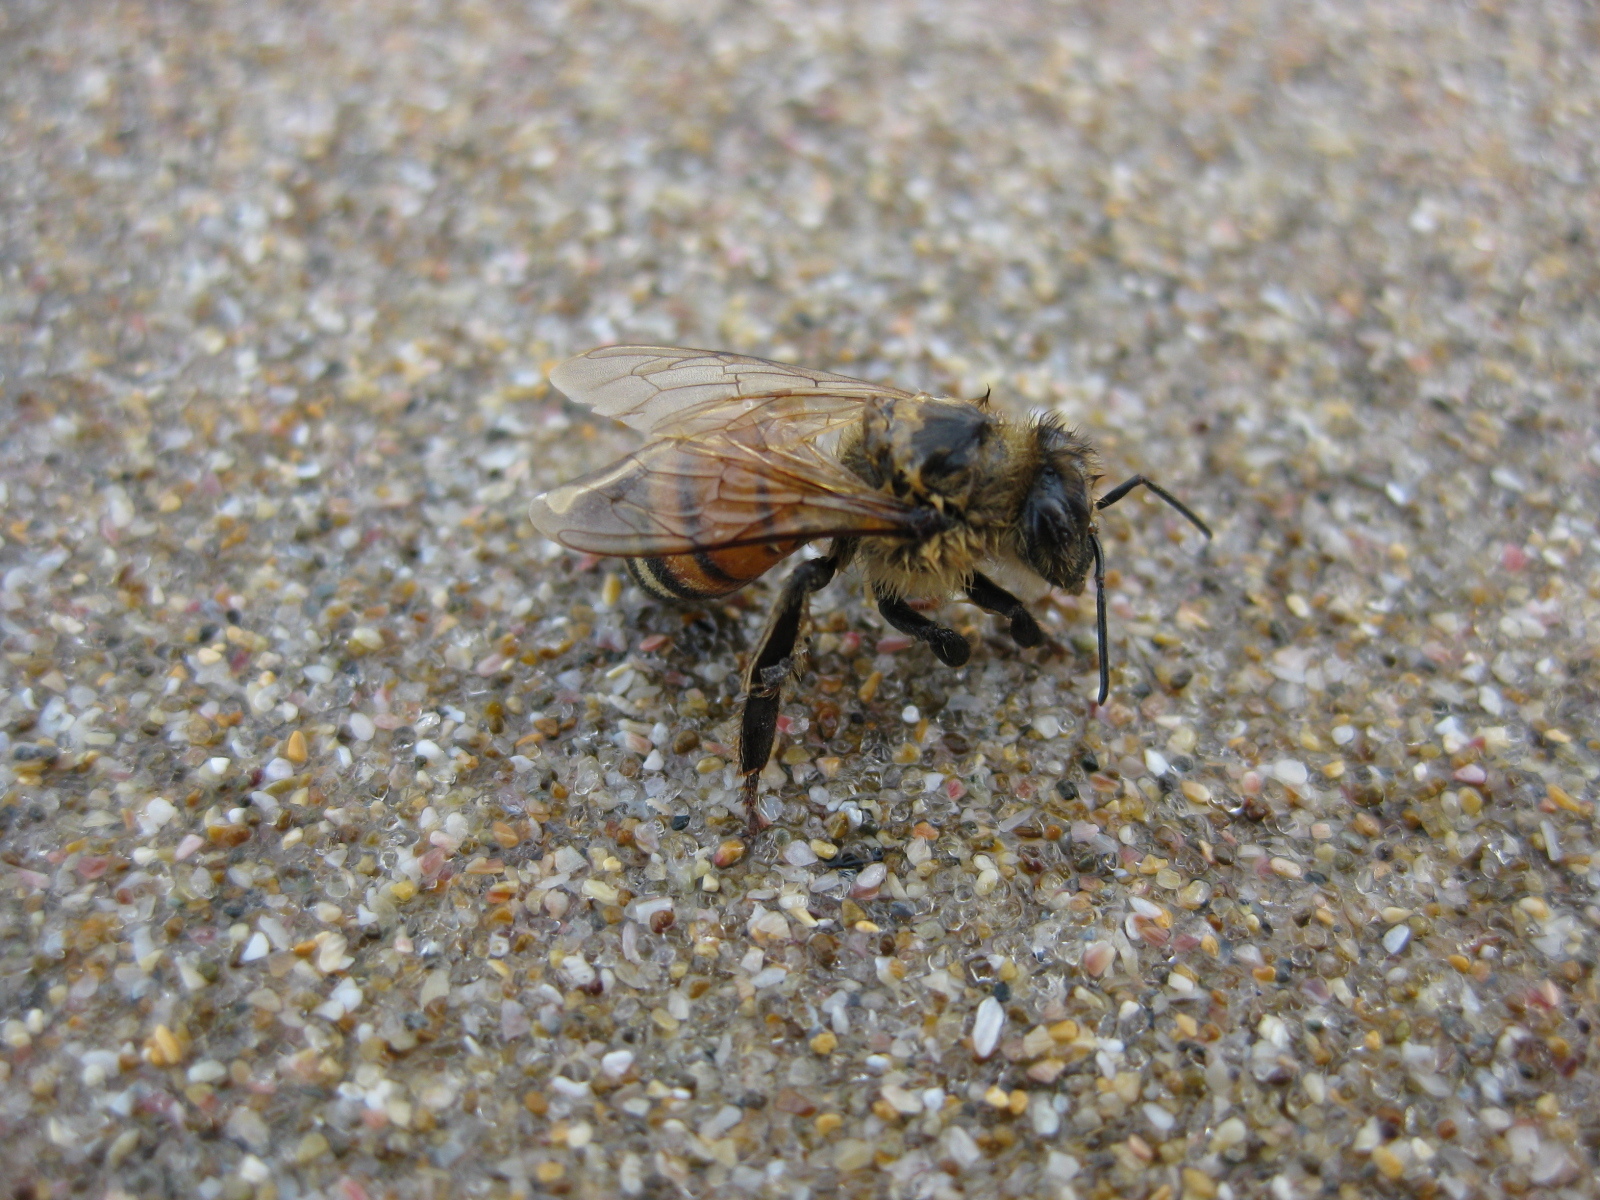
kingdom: Animalia
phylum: Arthropoda
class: Insecta
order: Hymenoptera
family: Apidae
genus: Apis
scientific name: Apis mellifera
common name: Honey bee
